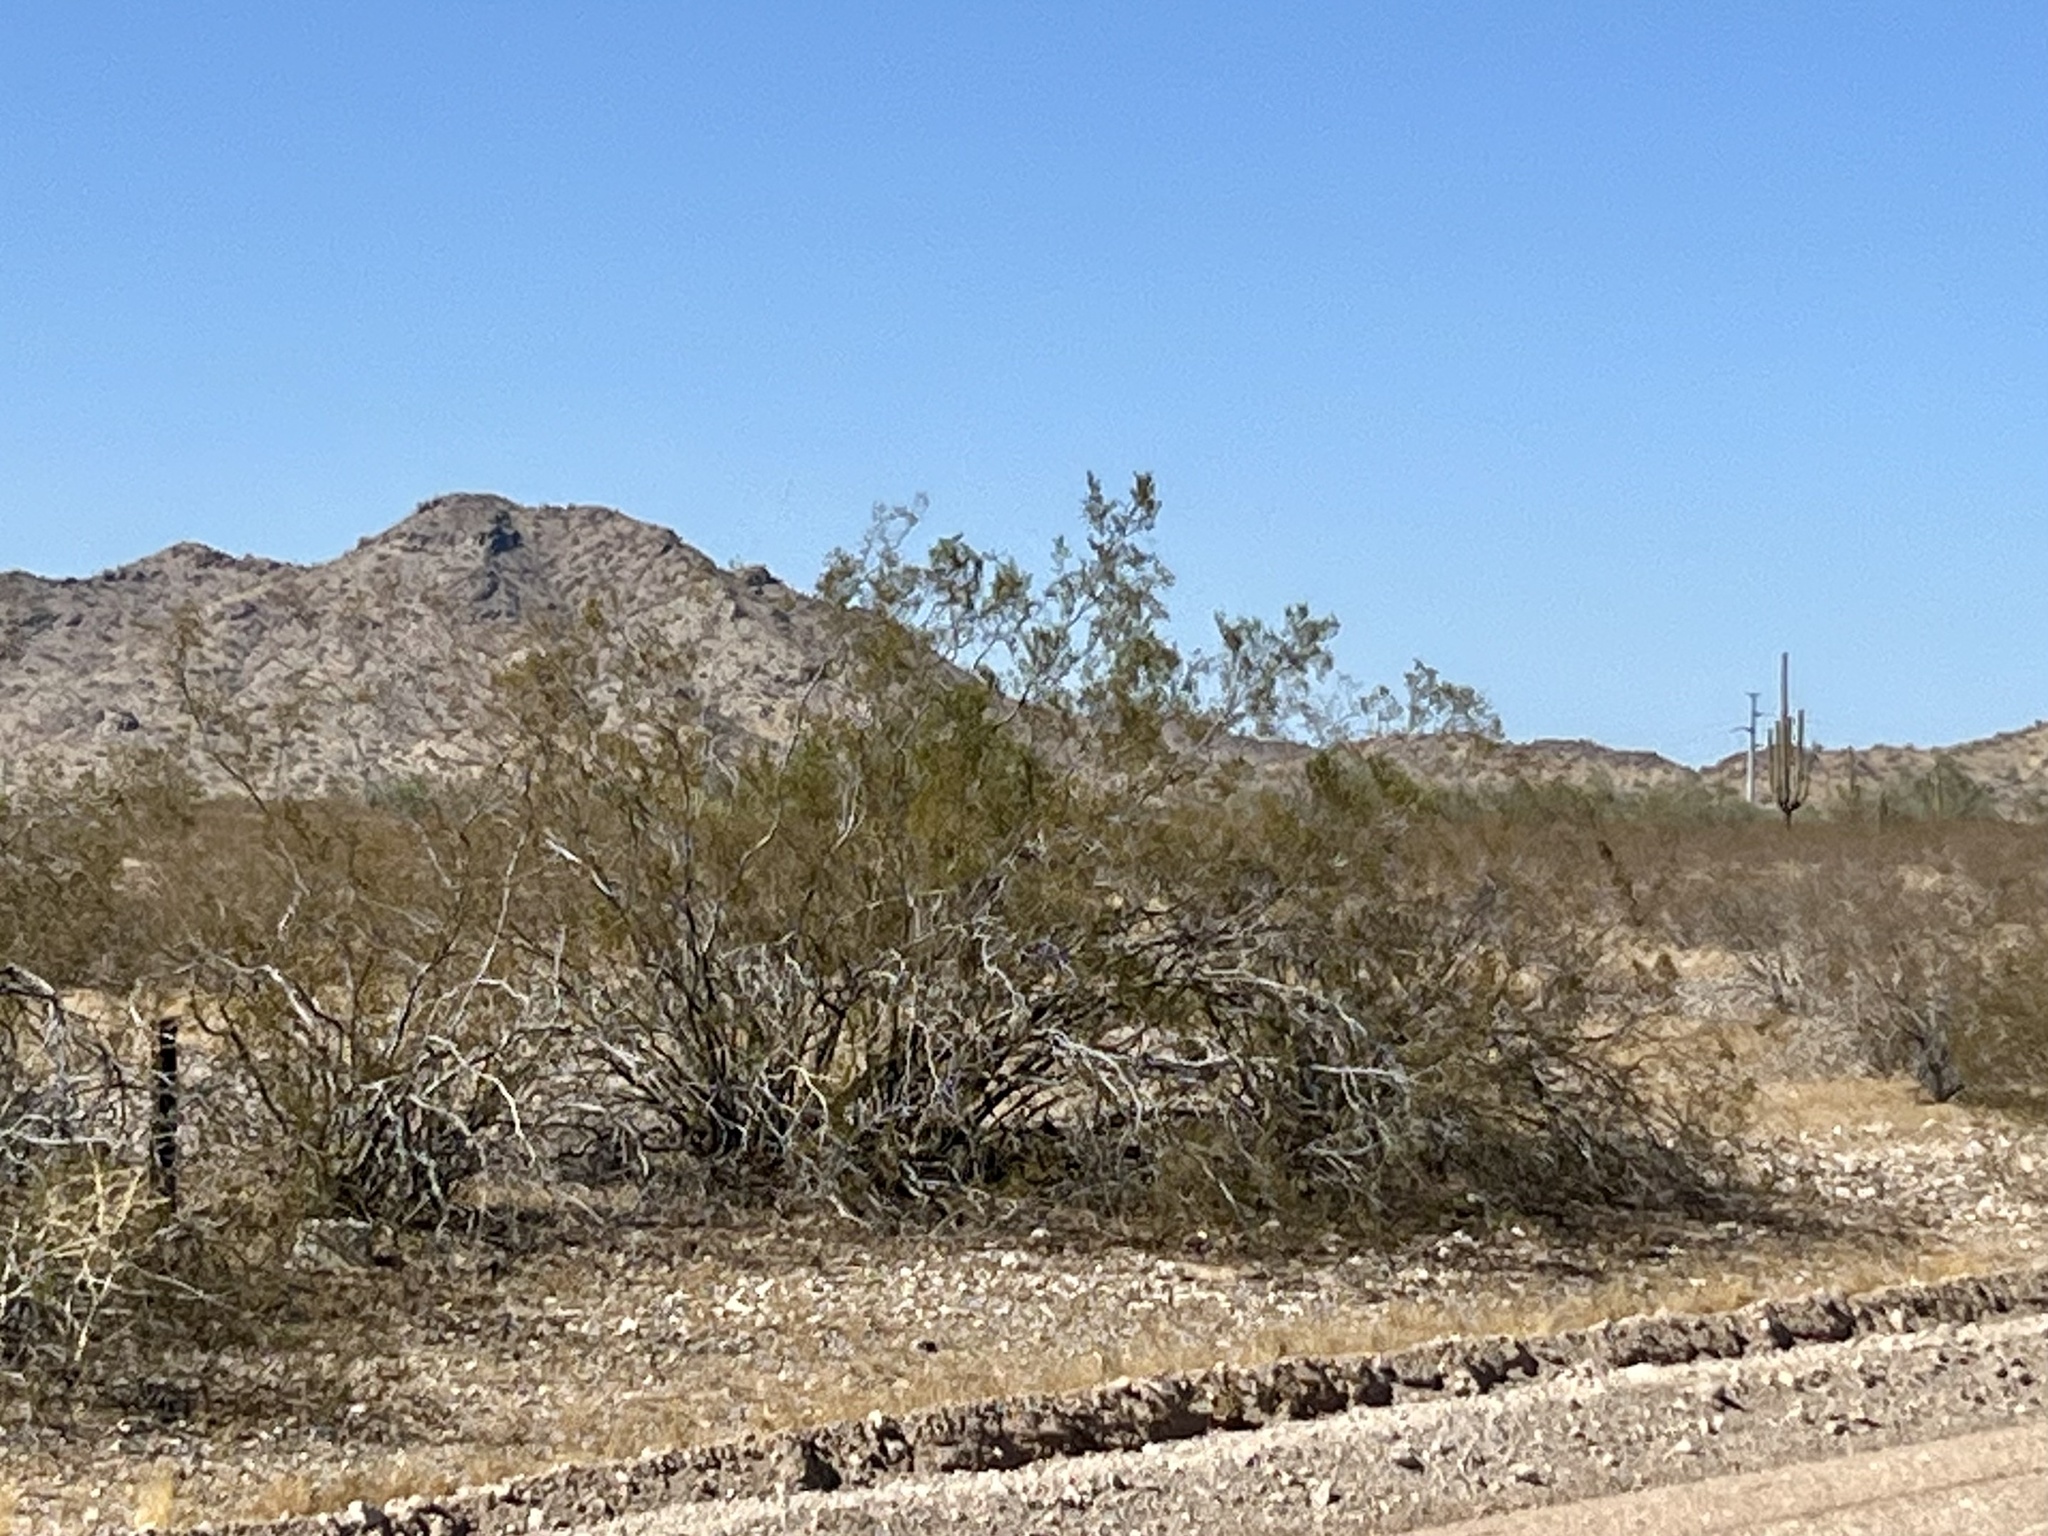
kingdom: Plantae
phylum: Tracheophyta
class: Magnoliopsida
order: Zygophyllales
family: Zygophyllaceae
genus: Larrea
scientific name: Larrea tridentata
